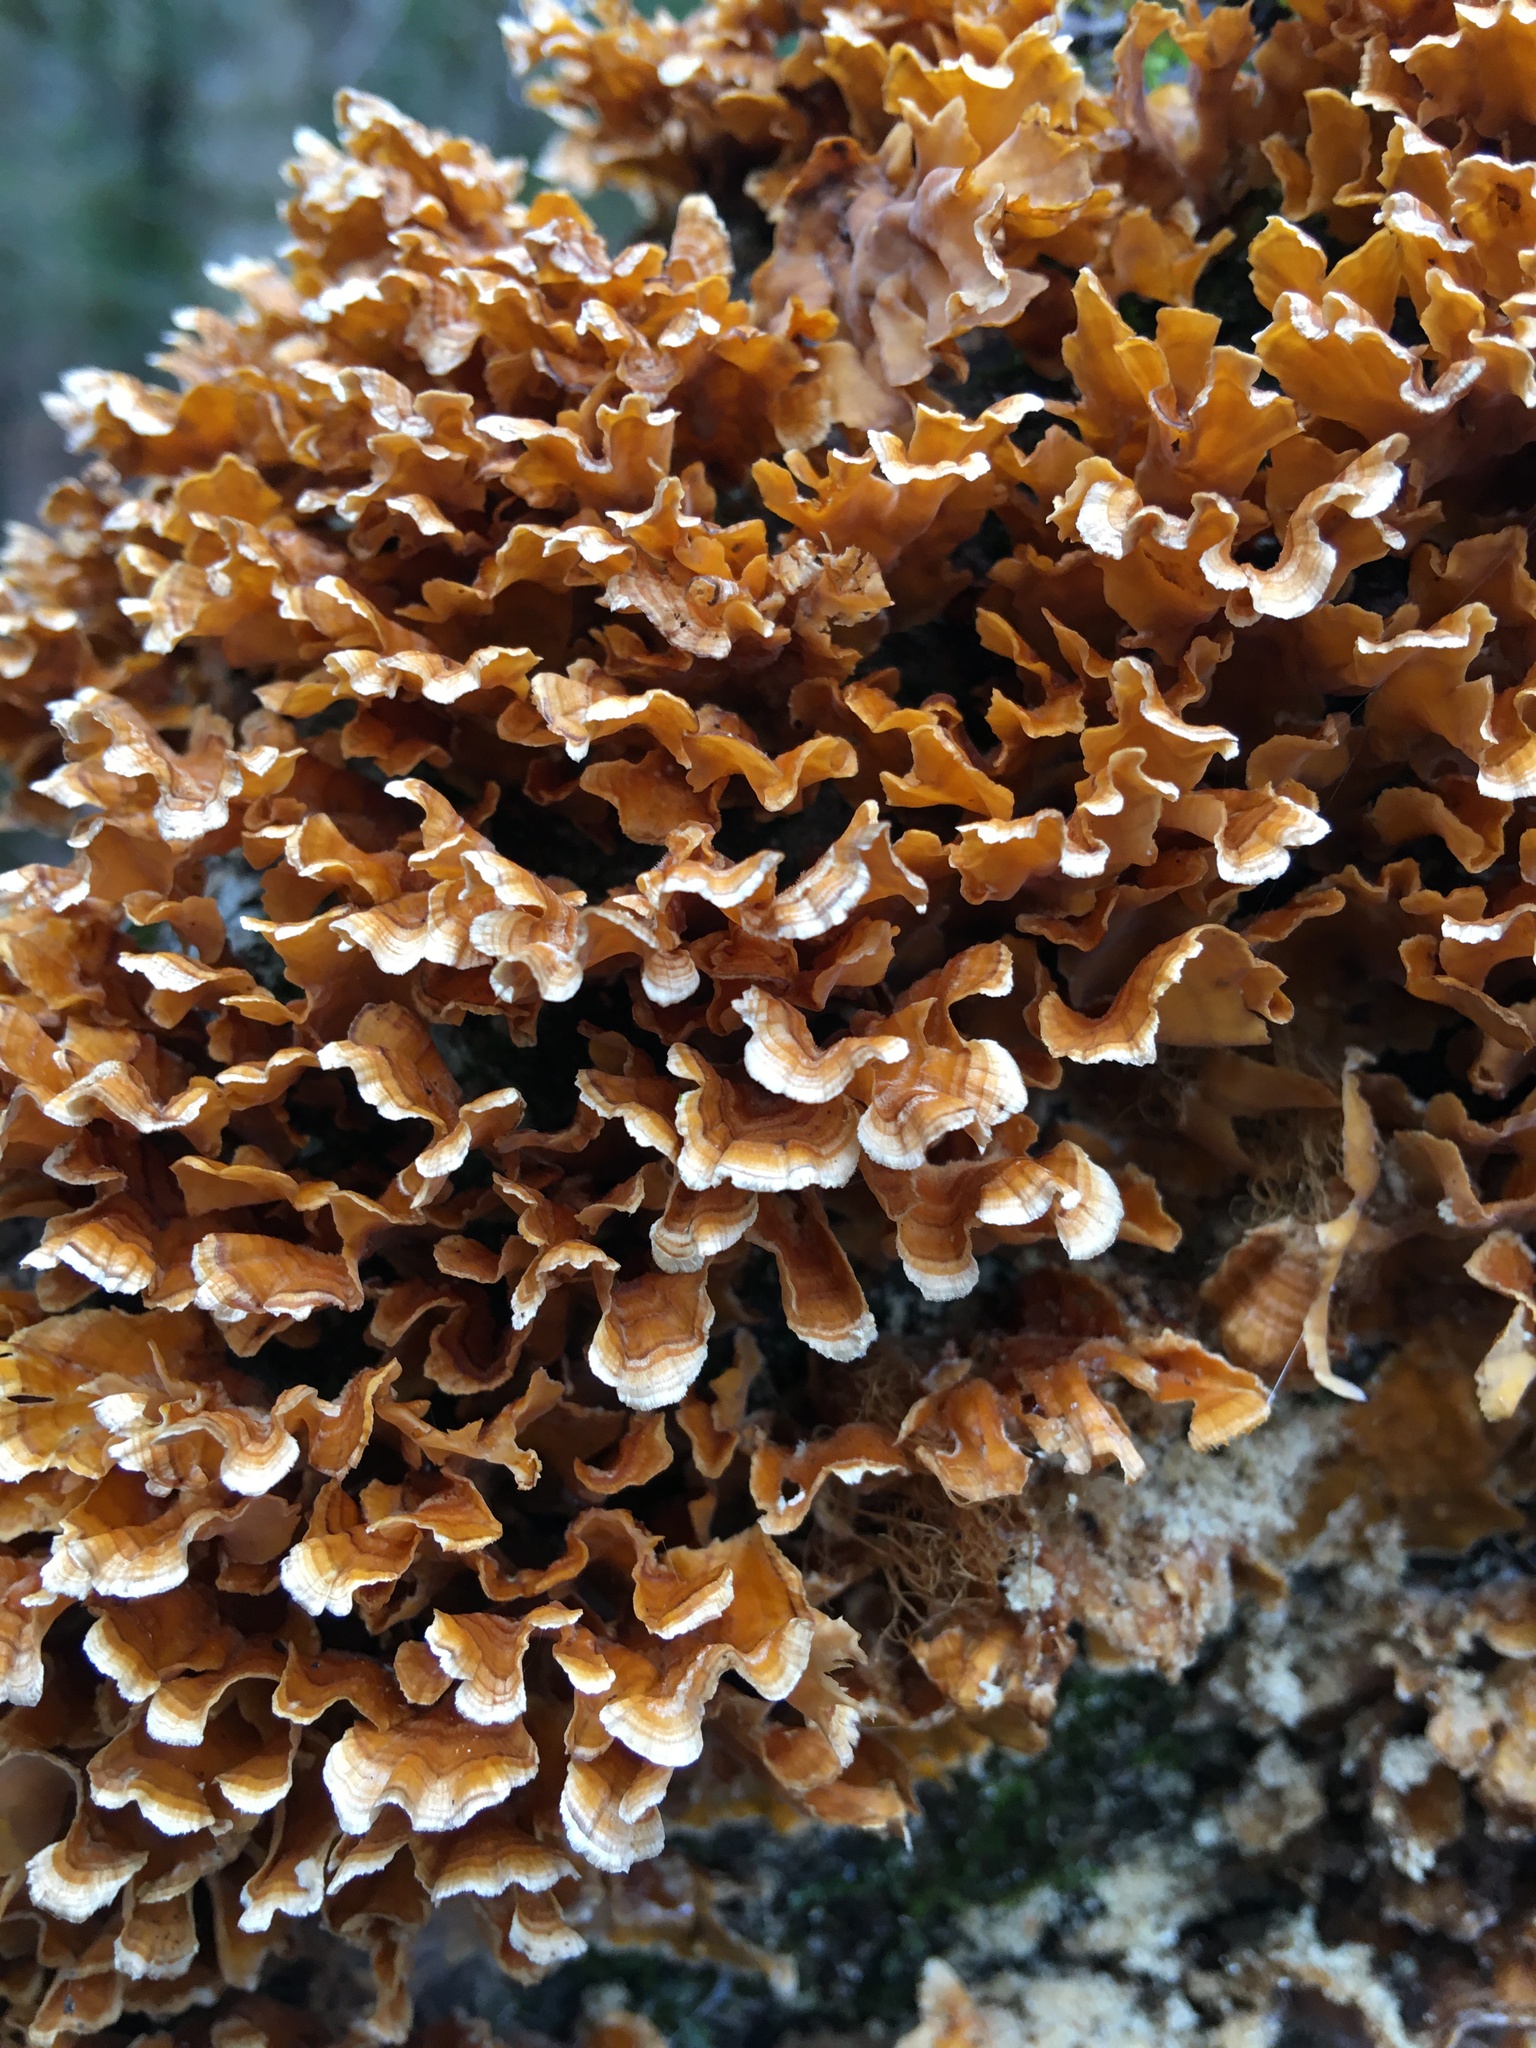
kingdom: Fungi
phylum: Basidiomycota
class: Agaricomycetes
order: Russulales
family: Stereaceae
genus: Stereum
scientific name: Stereum complicatum
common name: Crowded parchment
